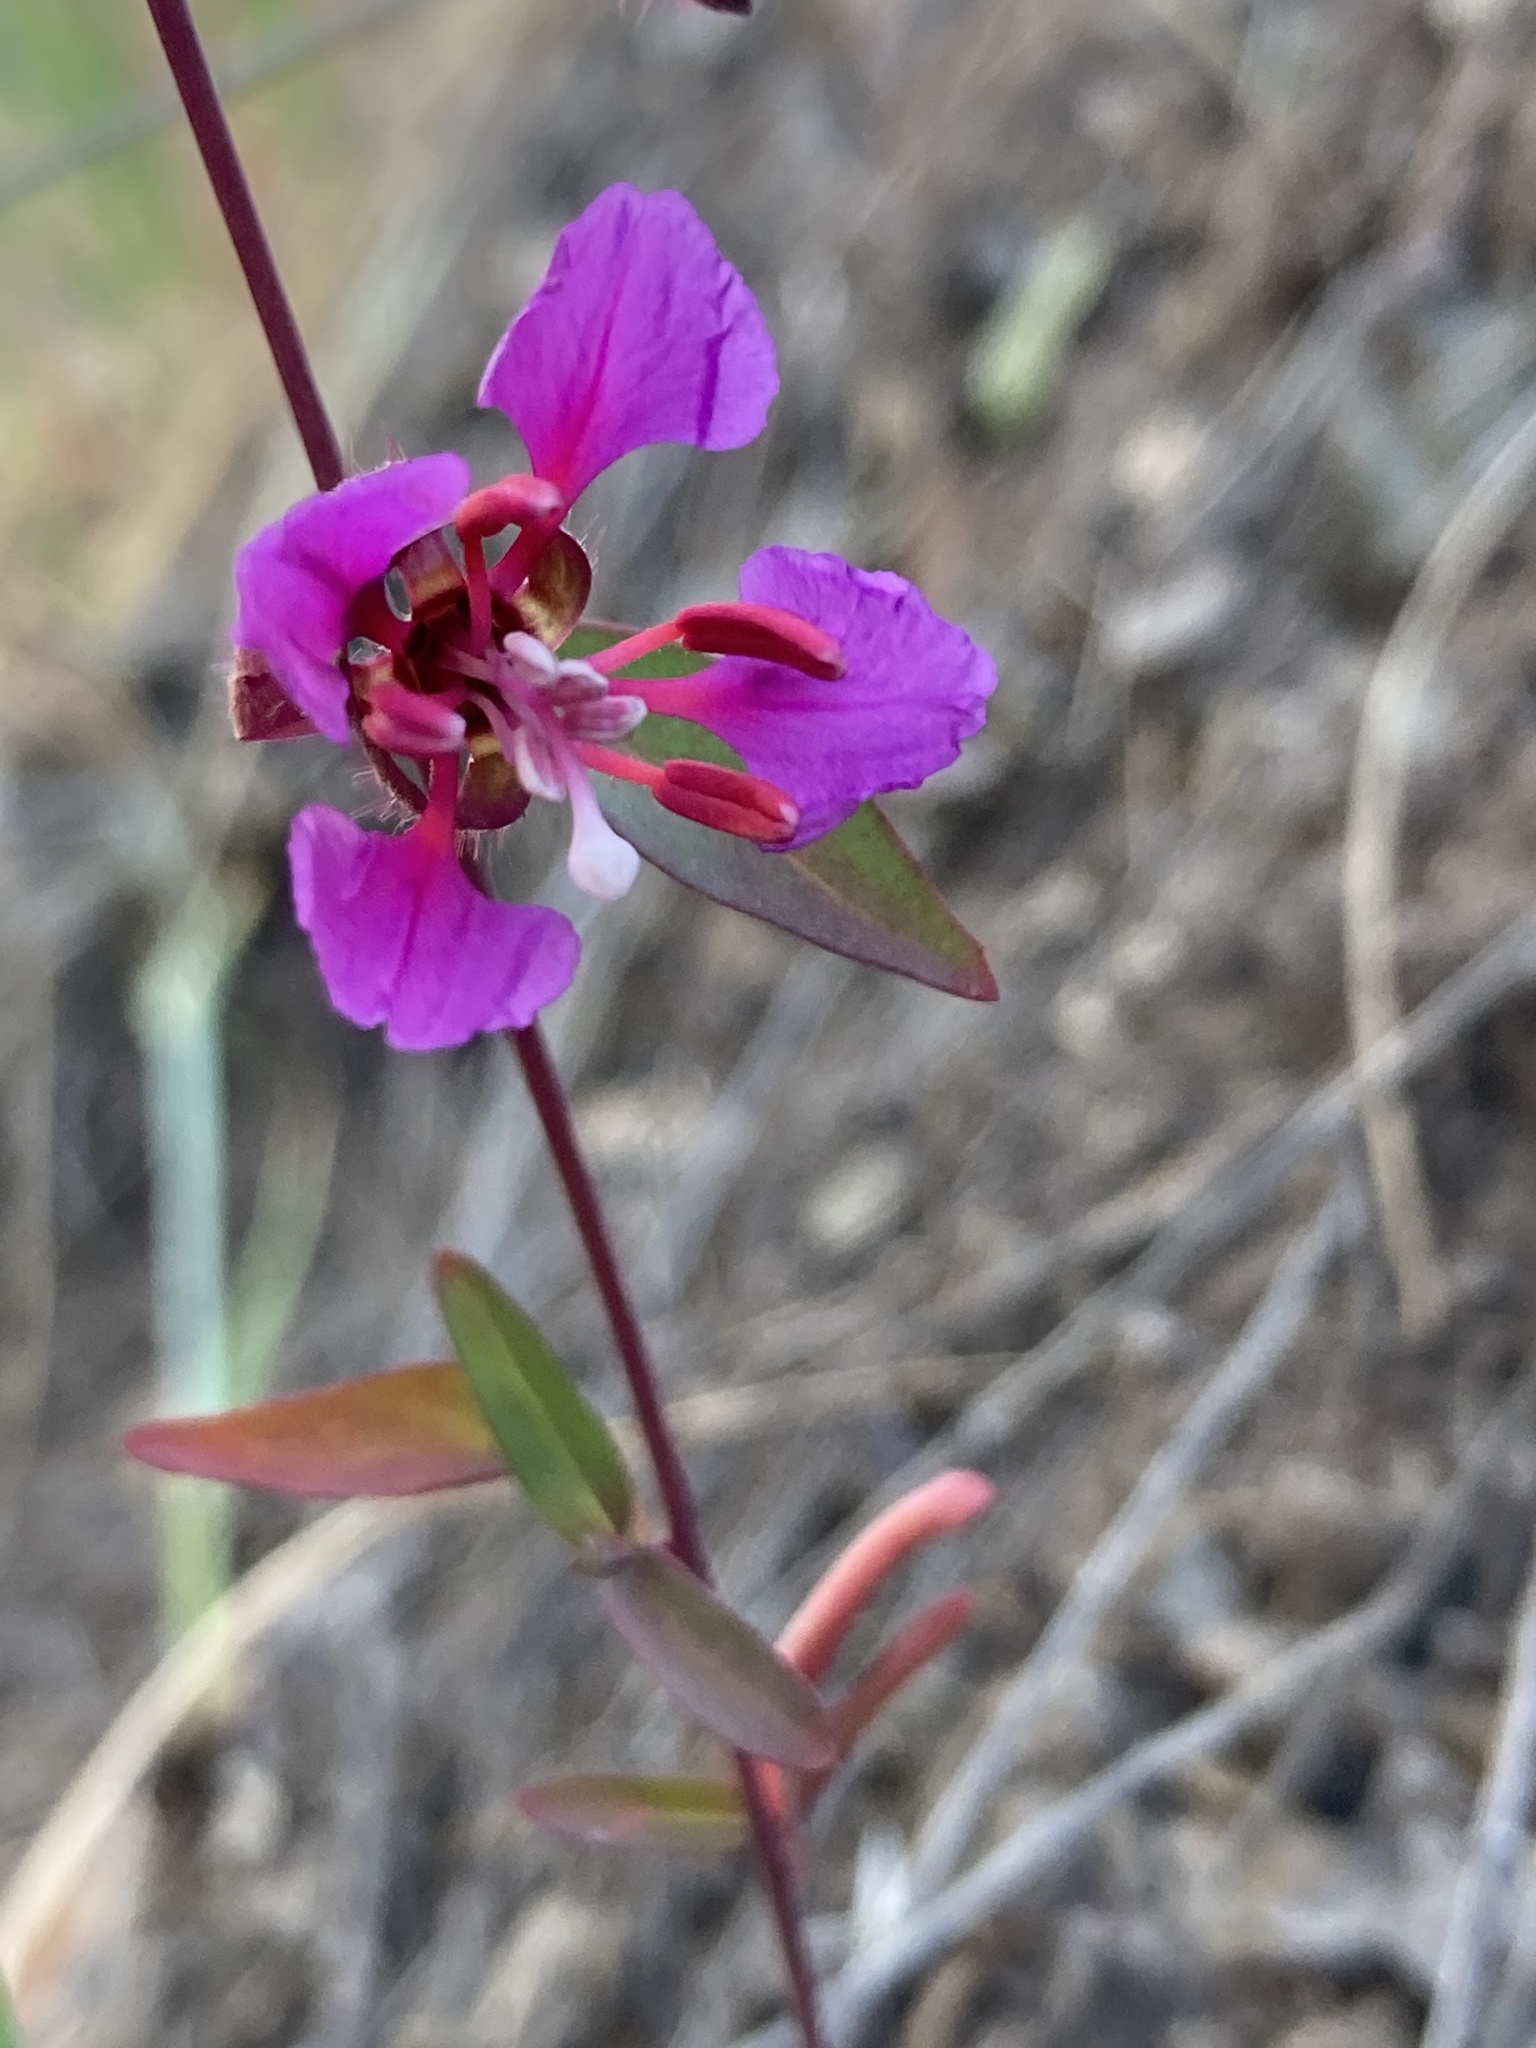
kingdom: Plantae
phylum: Tracheophyta
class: Magnoliopsida
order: Myrtales
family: Onagraceae
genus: Clarkia
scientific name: Clarkia unguiculata
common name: Clarkia
